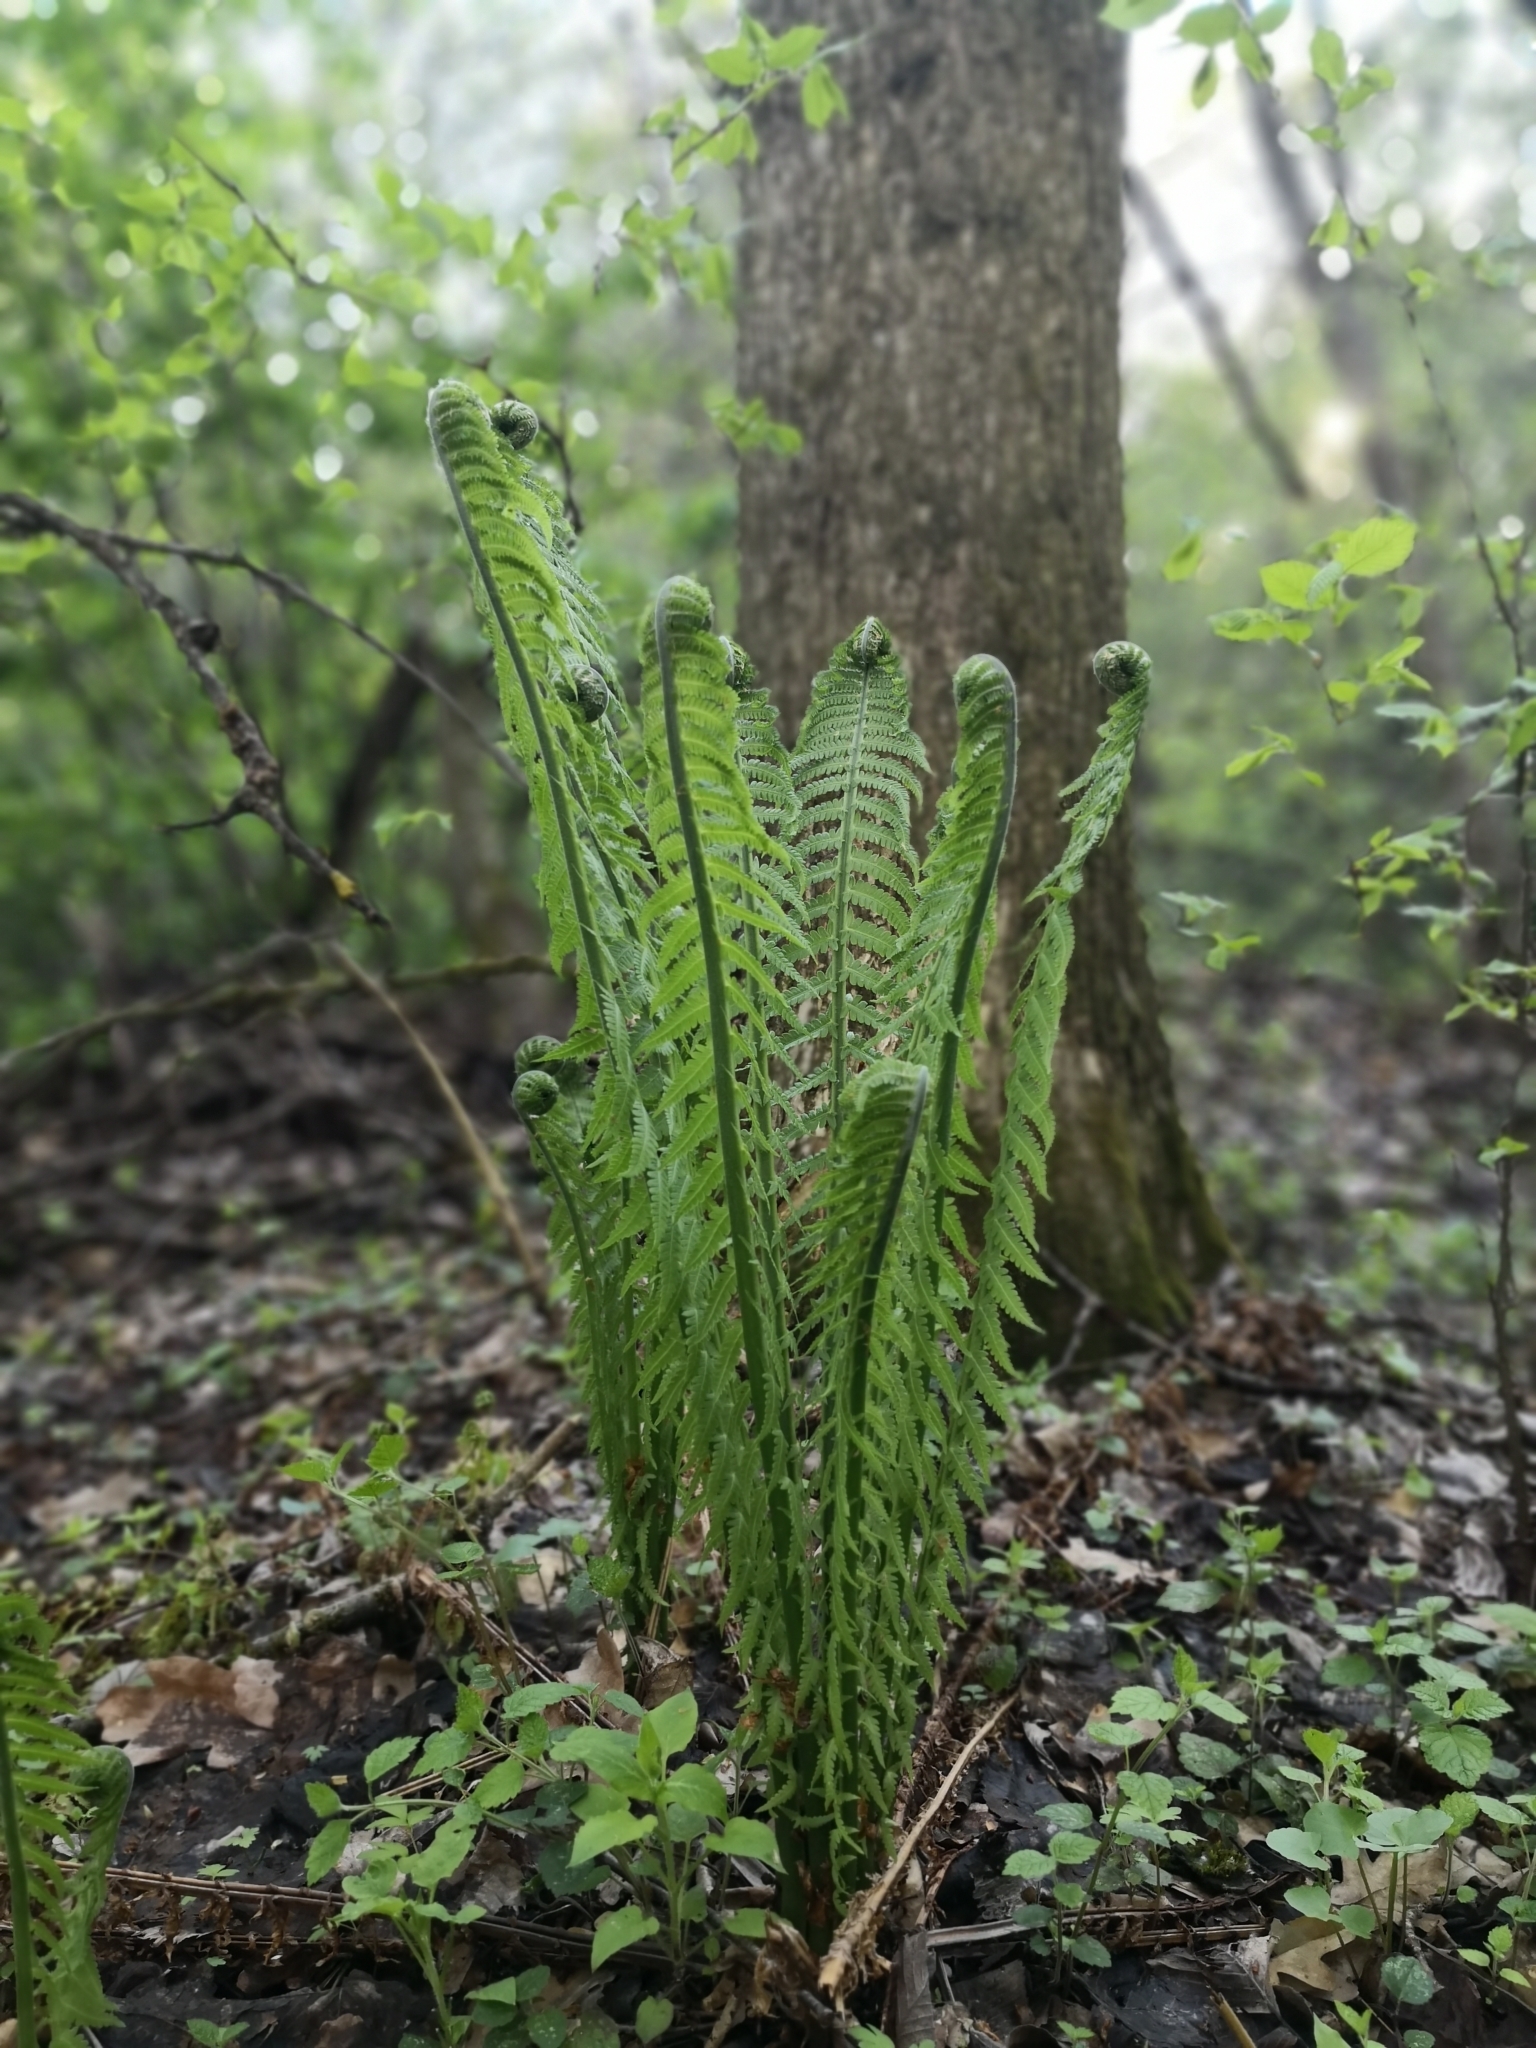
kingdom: Plantae
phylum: Tracheophyta
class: Polypodiopsida
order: Polypodiales
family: Onocleaceae
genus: Matteuccia
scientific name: Matteuccia struthiopteris
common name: Ostrich fern
